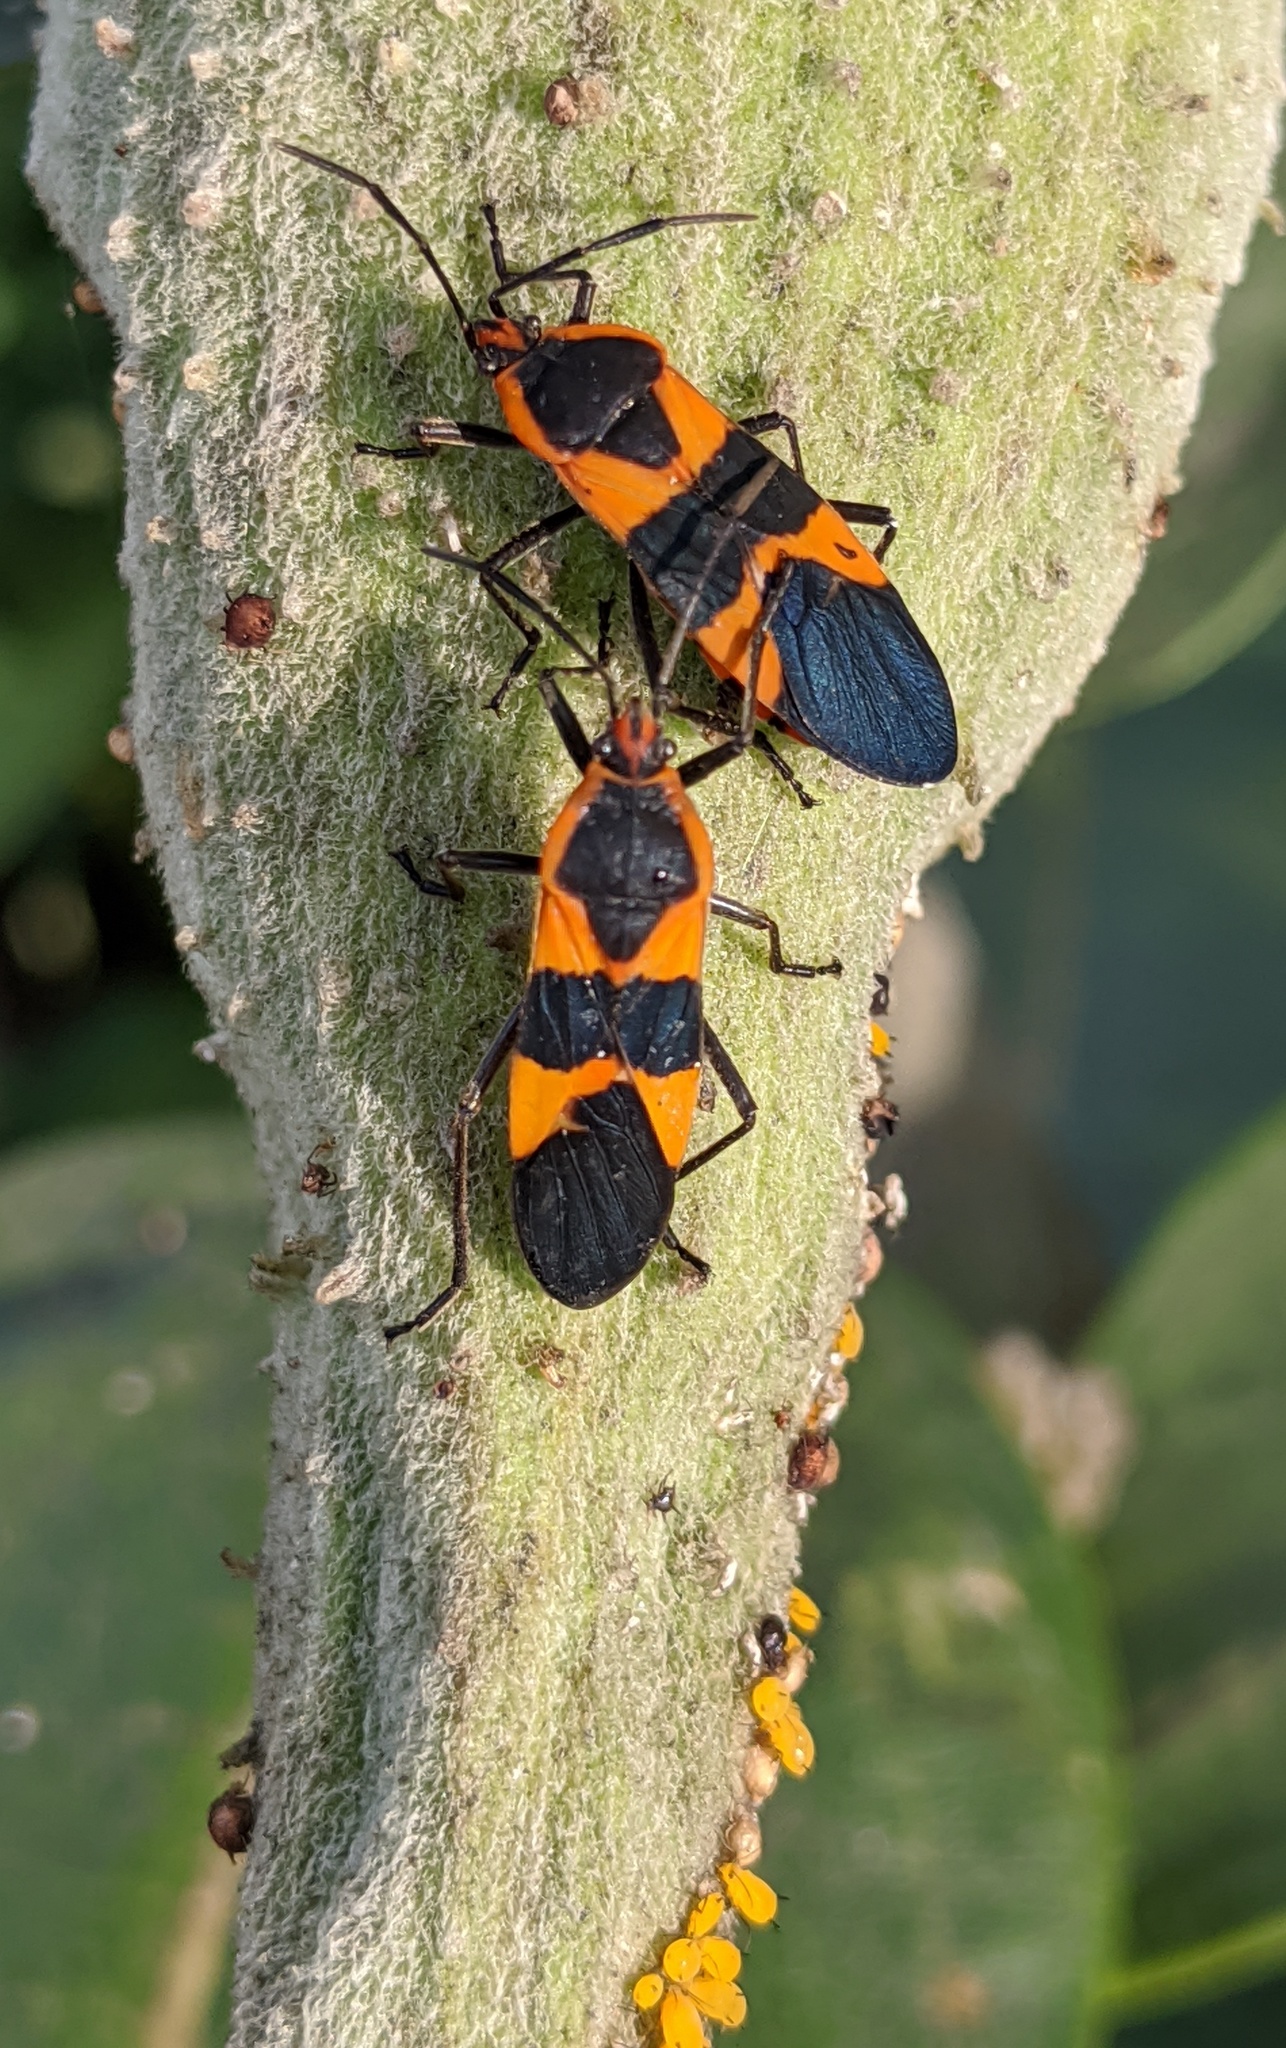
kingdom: Animalia
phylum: Arthropoda
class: Insecta
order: Hemiptera
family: Lygaeidae
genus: Oncopeltus
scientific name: Oncopeltus fasciatus
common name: Large milkweed bug
